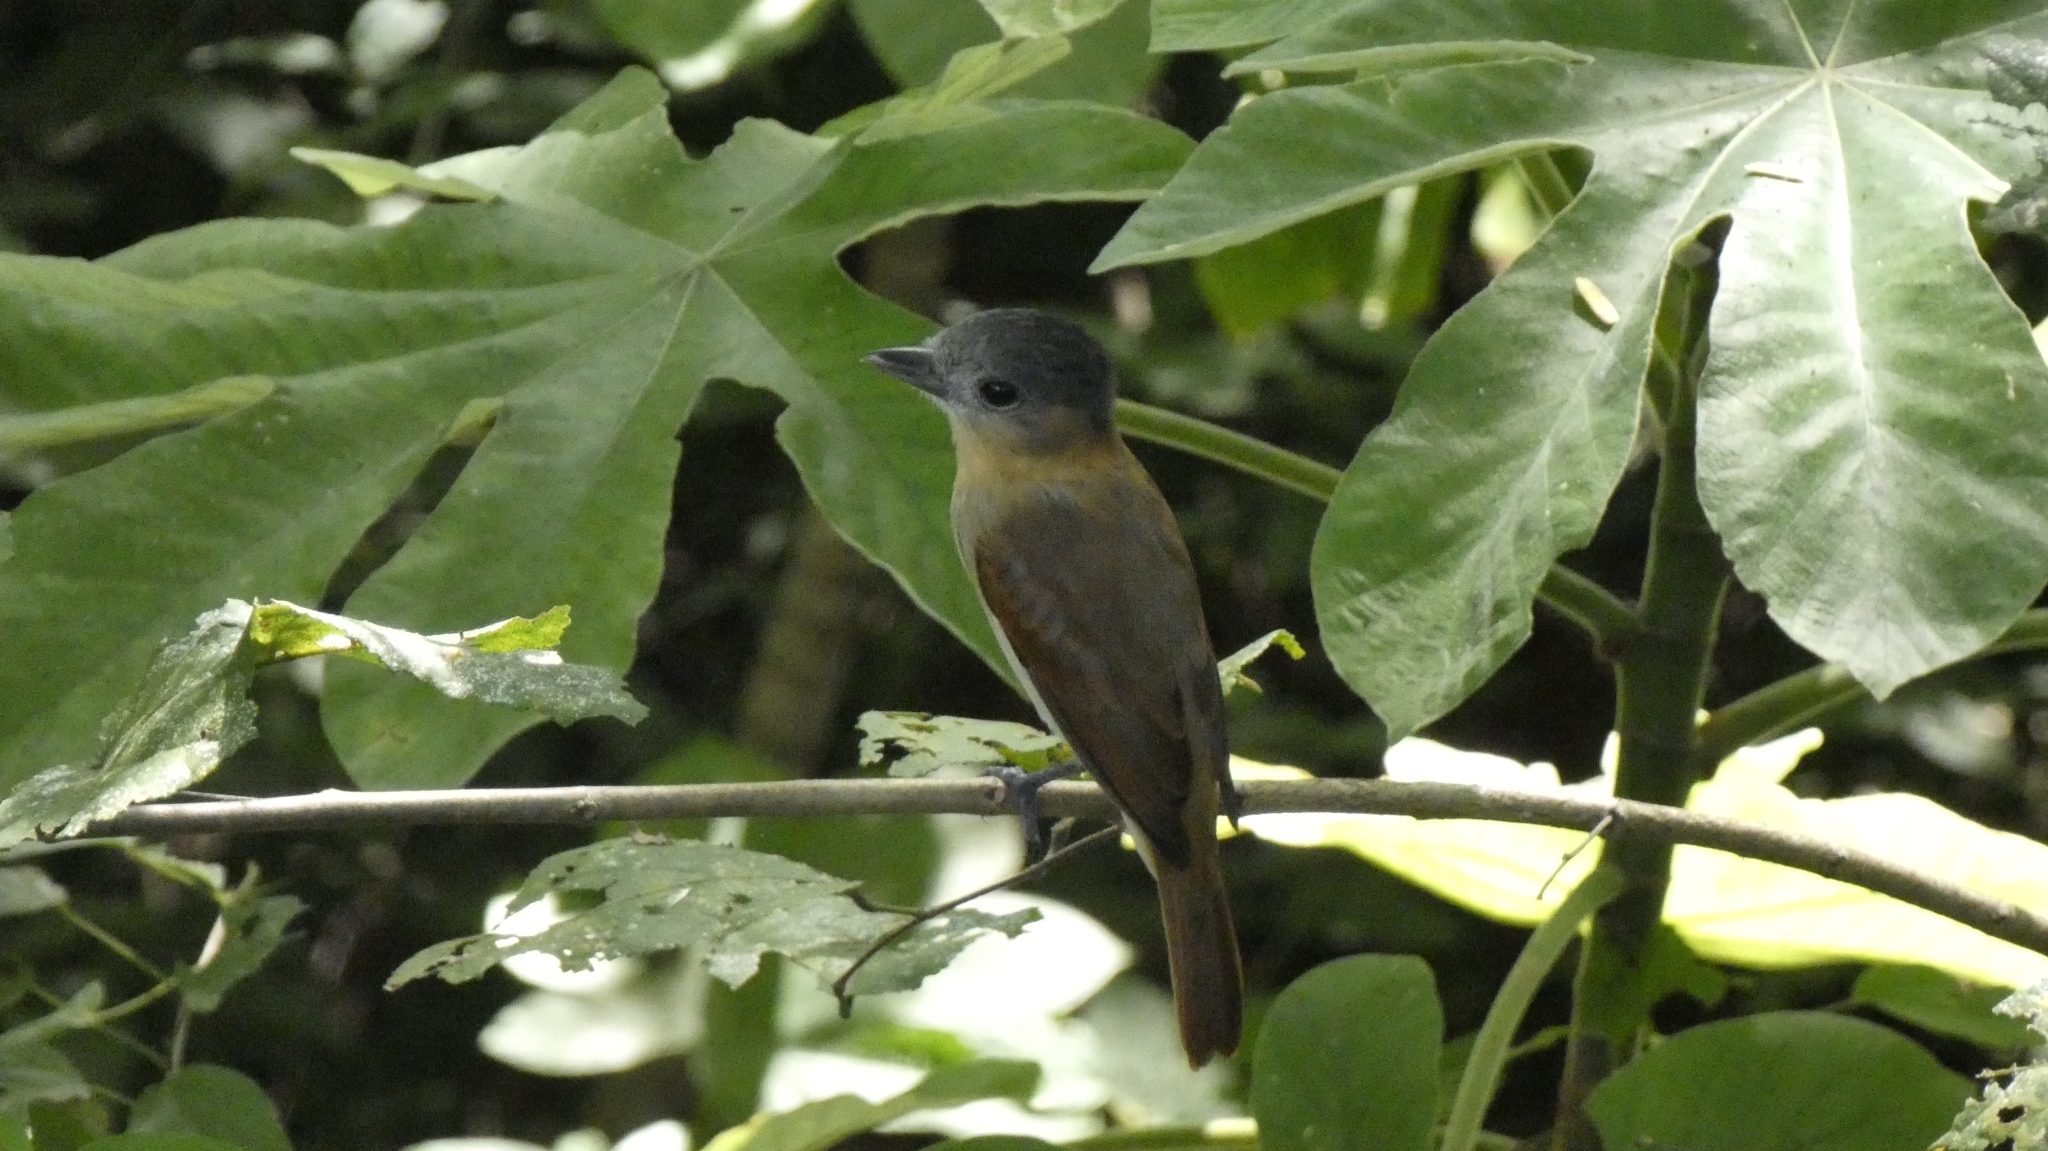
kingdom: Animalia
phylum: Chordata
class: Aves
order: Passeriformes
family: Cotingidae
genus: Pachyramphus
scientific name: Pachyramphus aglaiae
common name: Rose-throated becard
